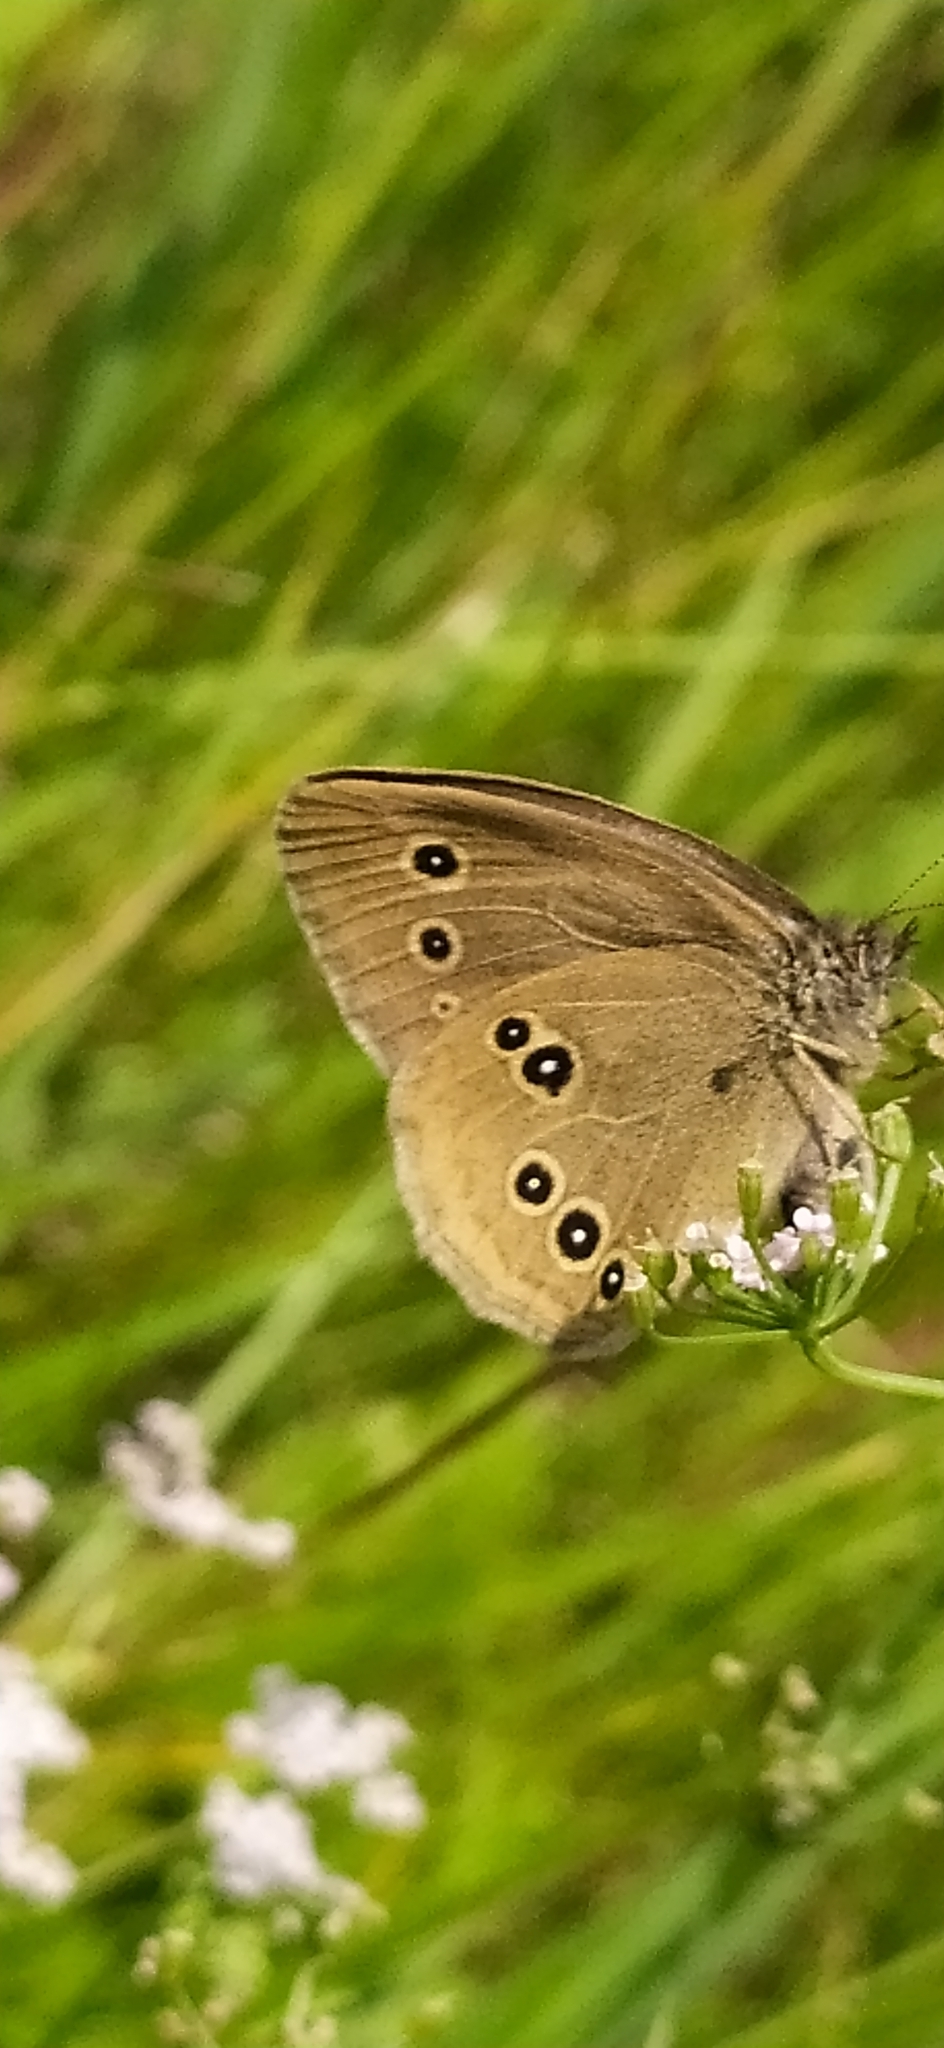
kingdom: Animalia
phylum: Arthropoda
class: Insecta
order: Lepidoptera
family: Nymphalidae
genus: Aphantopus
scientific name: Aphantopus hyperantus
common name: Ringlet
